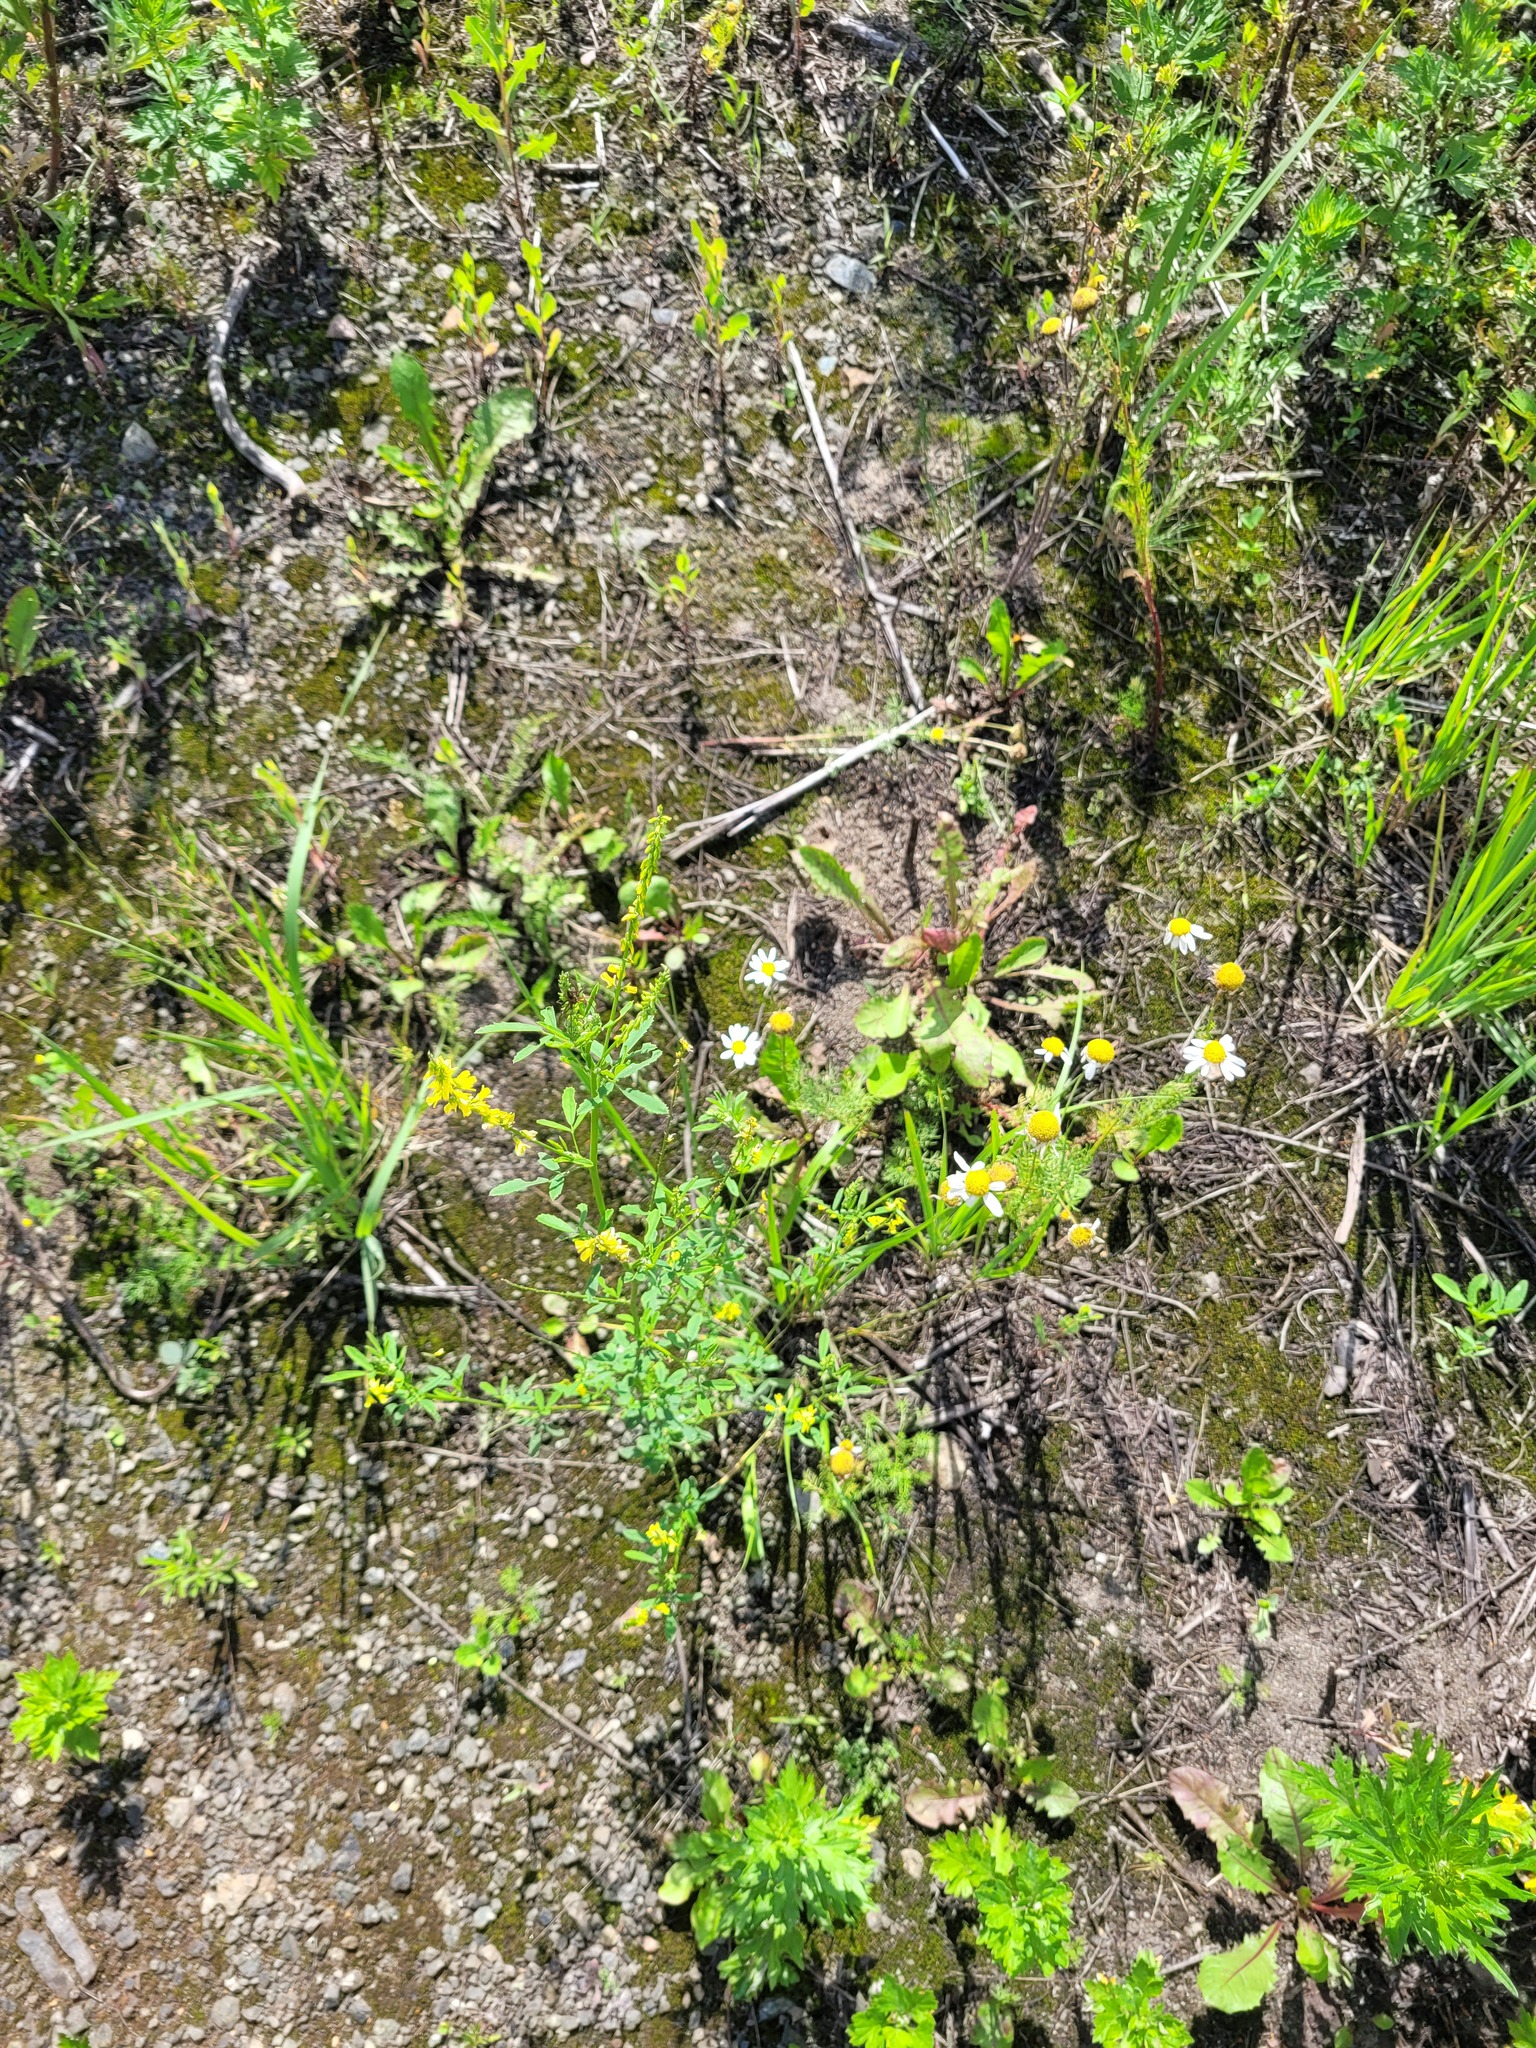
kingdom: Plantae
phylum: Tracheophyta
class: Magnoliopsida
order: Fabales
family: Fabaceae
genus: Melilotus
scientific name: Melilotus officinalis
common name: Sweetclover
